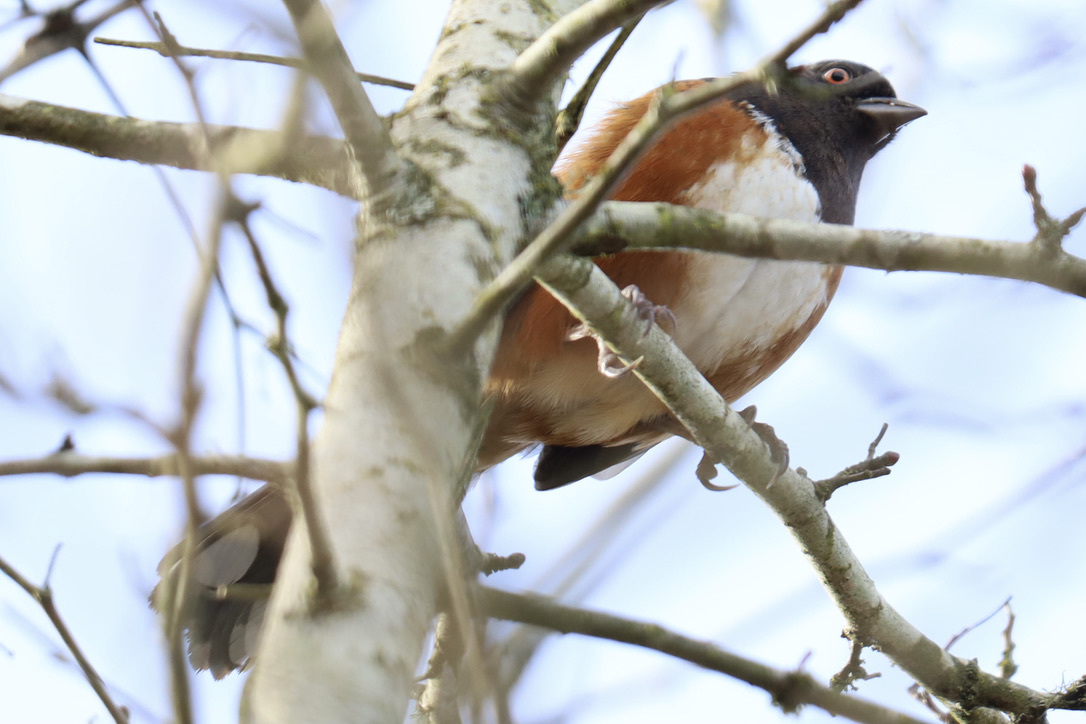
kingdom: Animalia
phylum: Chordata
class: Aves
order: Passeriformes
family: Passerellidae
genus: Pipilo
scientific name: Pipilo maculatus
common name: Spotted towhee
